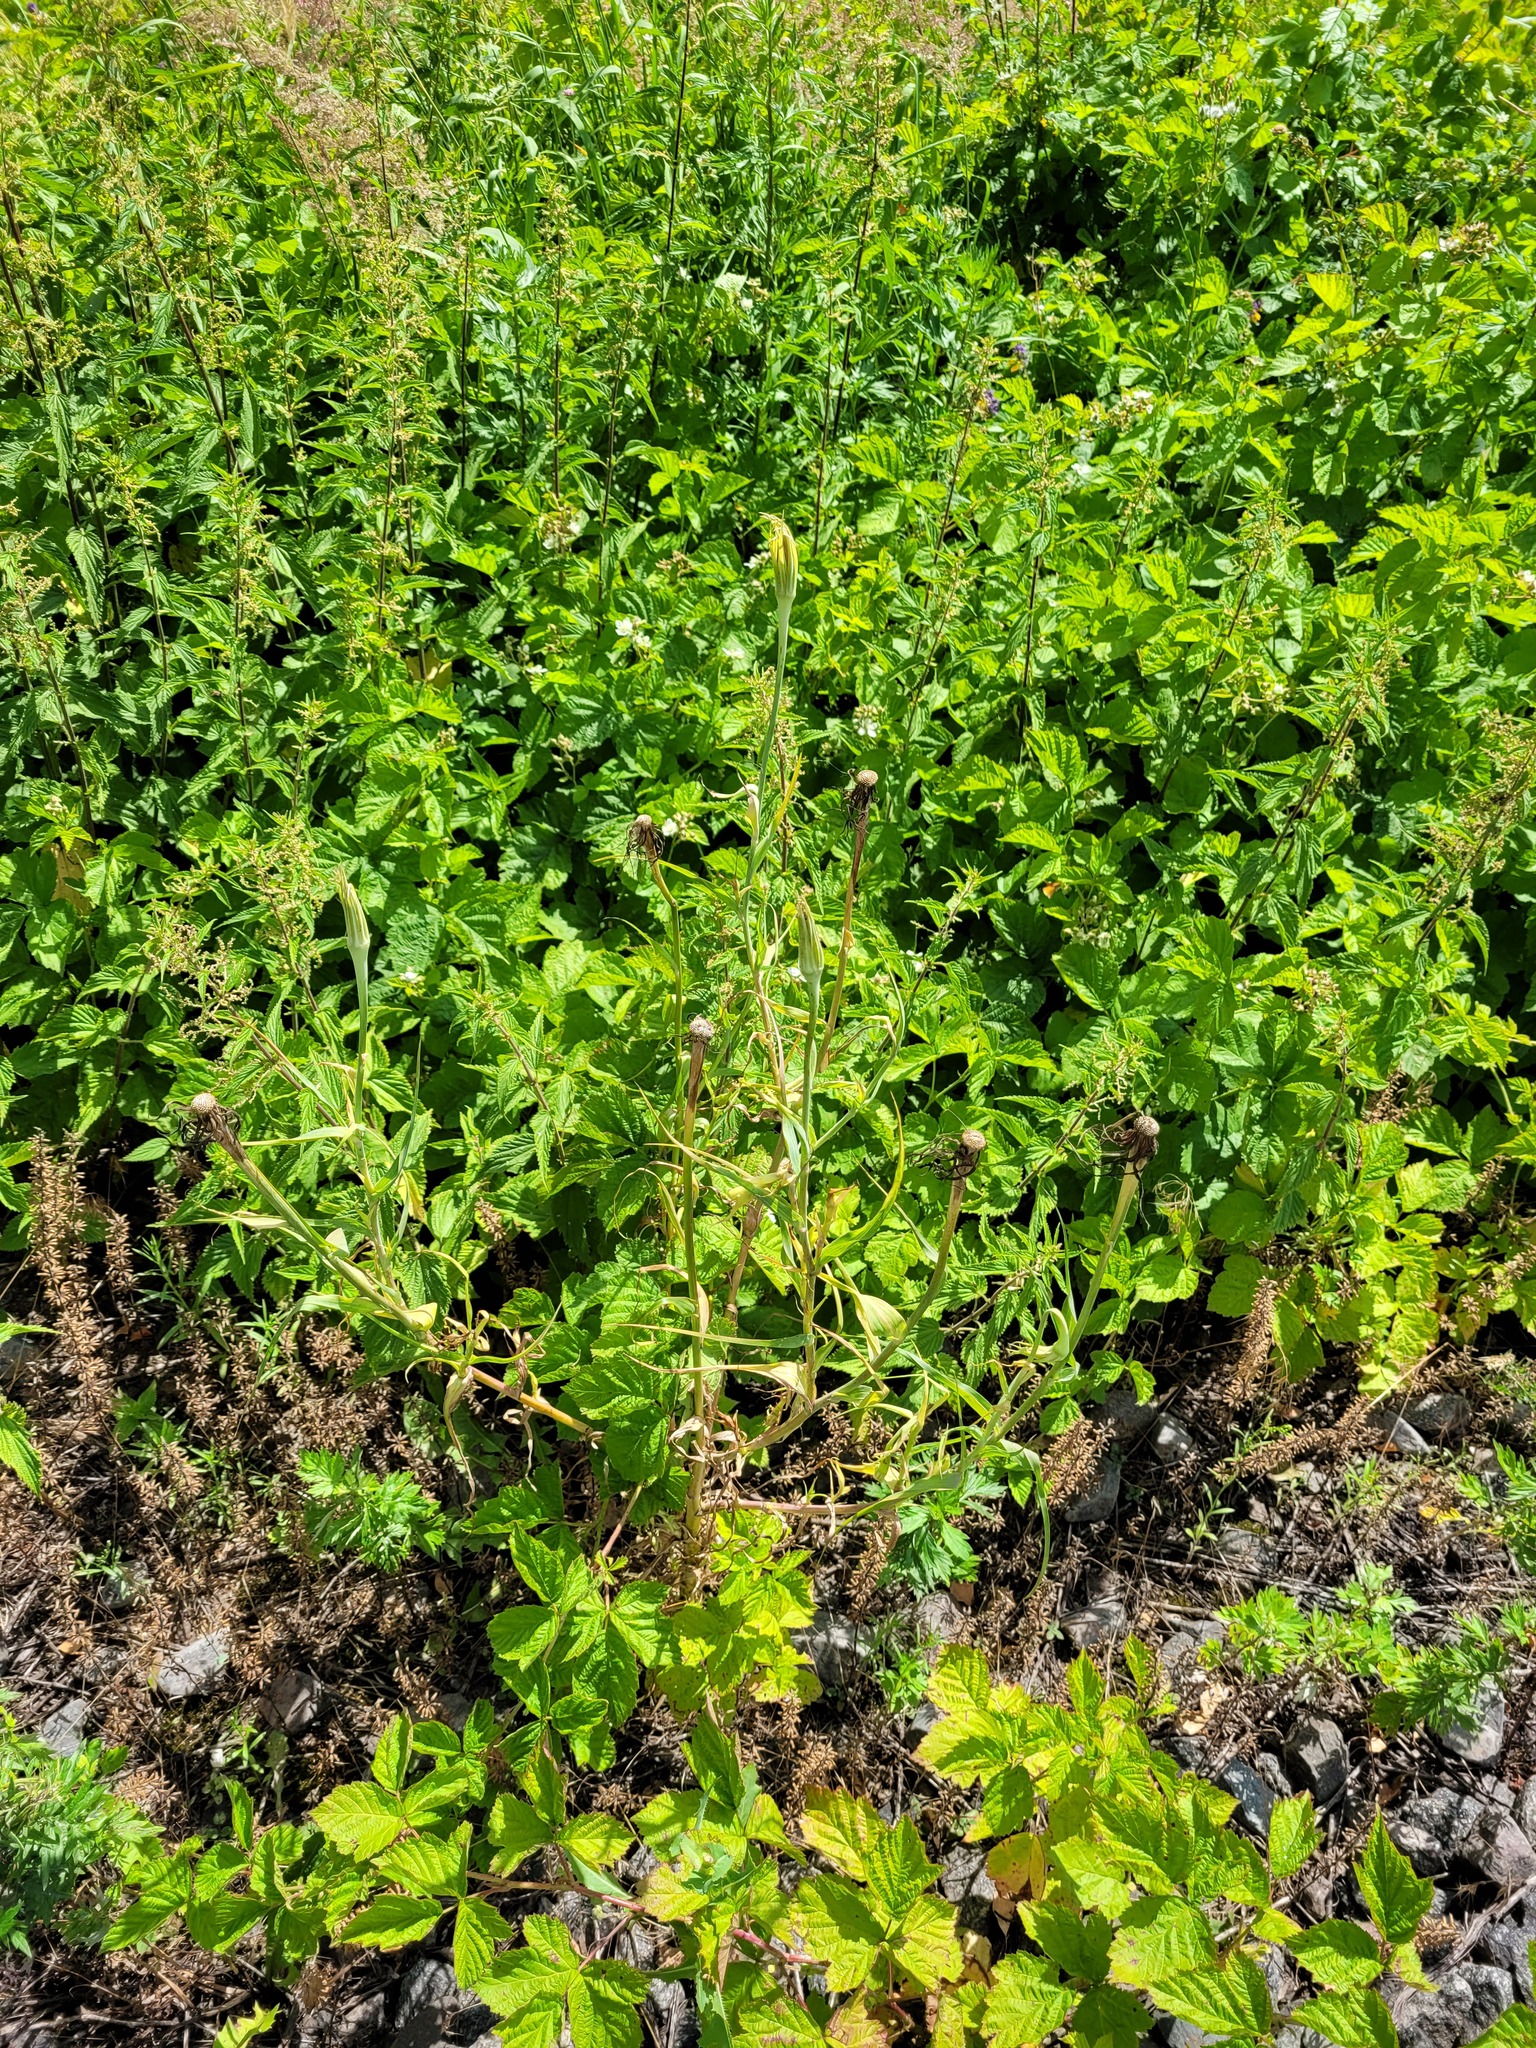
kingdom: Plantae
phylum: Tracheophyta
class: Magnoliopsida
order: Asterales
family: Asteraceae
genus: Tragopogon
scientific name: Tragopogon dubius
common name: Yellow salsify
